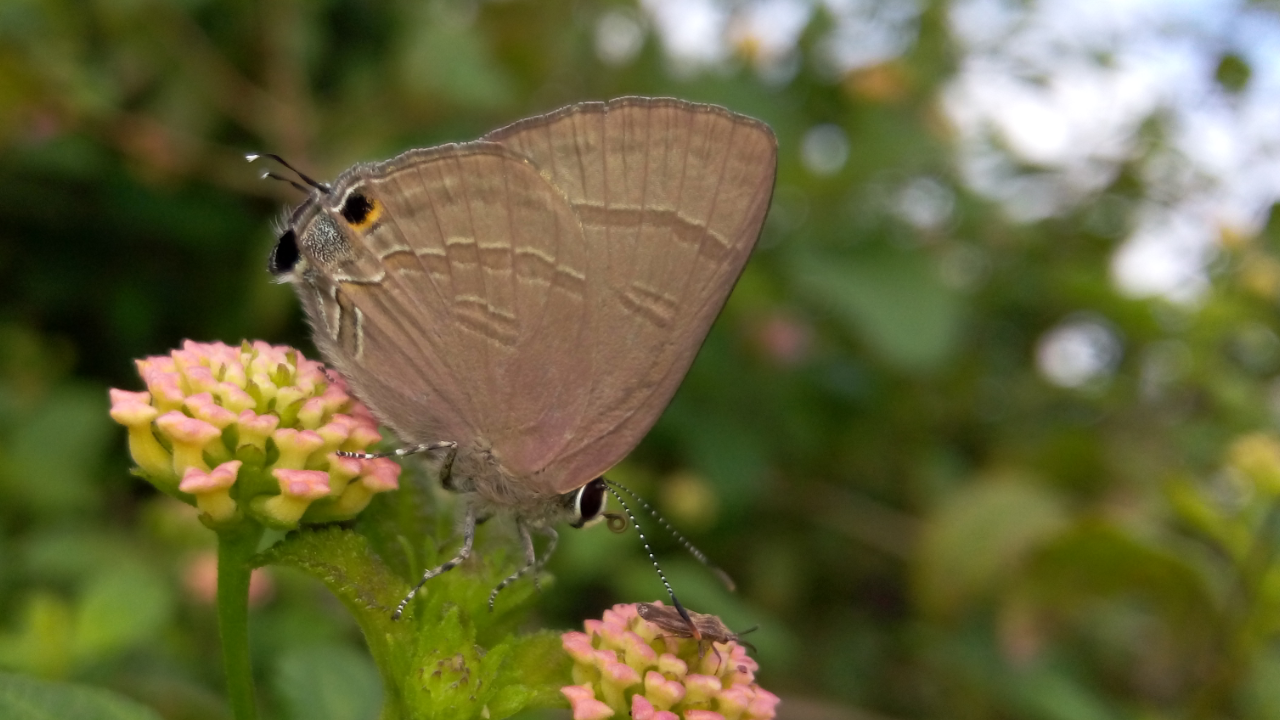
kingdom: Animalia
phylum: Arthropoda
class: Insecta
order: Lepidoptera
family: Lycaenidae
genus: Rapala
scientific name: Rapala manea
